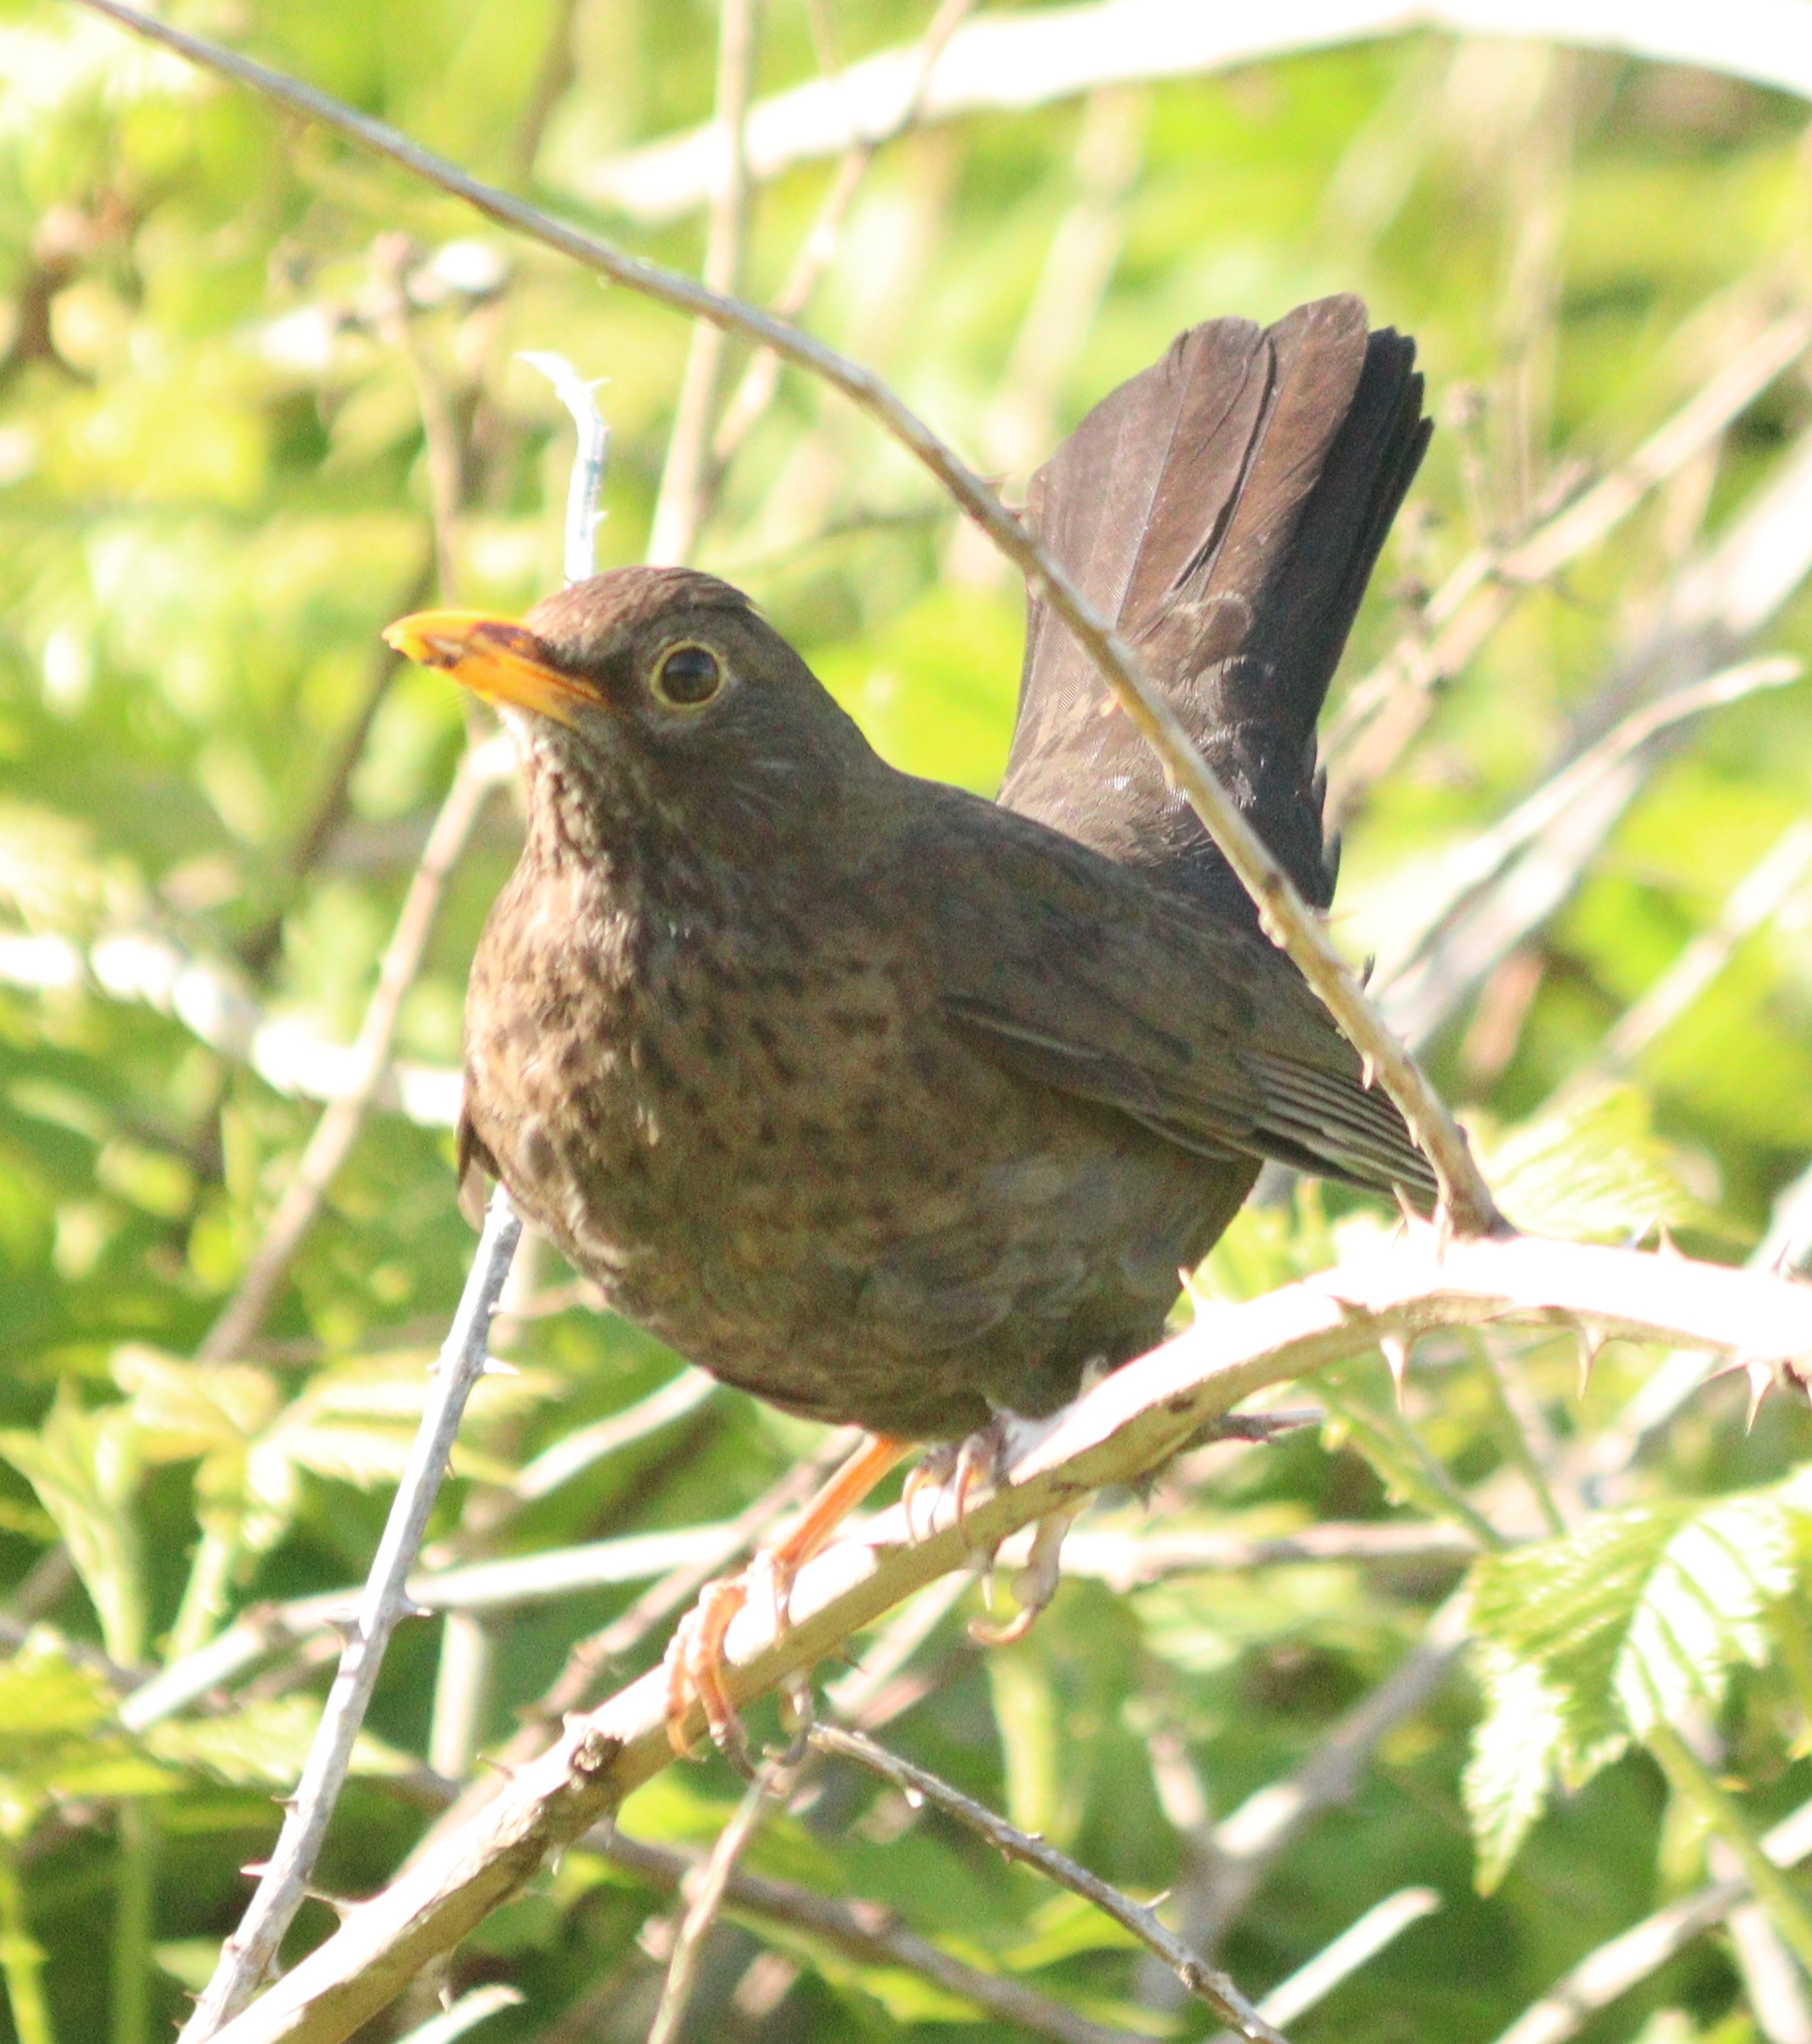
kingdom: Animalia
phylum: Chordata
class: Aves
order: Passeriformes
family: Turdidae
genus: Turdus
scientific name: Turdus merula
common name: Common blackbird
